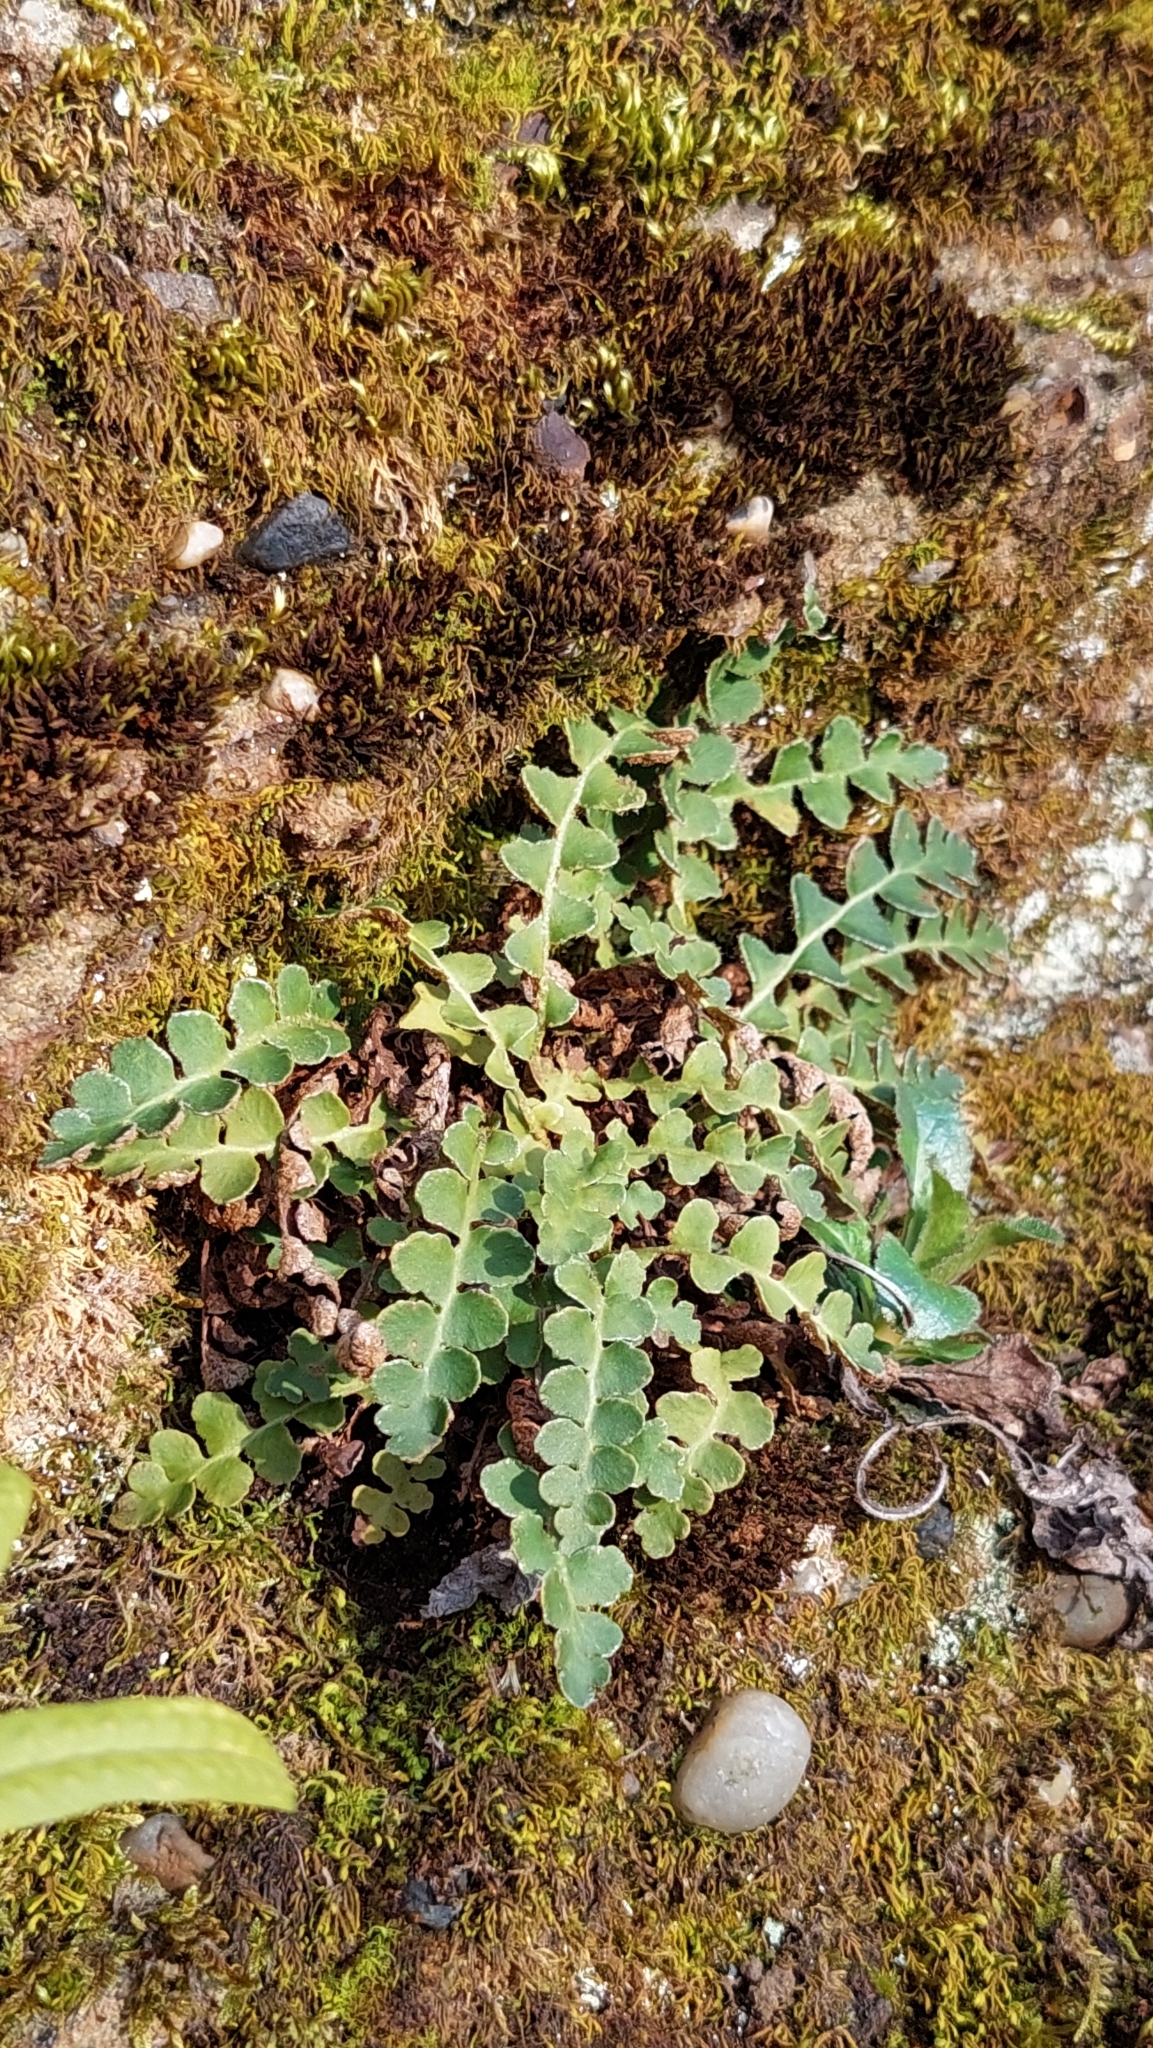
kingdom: Plantae
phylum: Tracheophyta
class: Polypodiopsida
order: Polypodiales
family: Aspleniaceae
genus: Asplenium
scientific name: Asplenium ceterach
